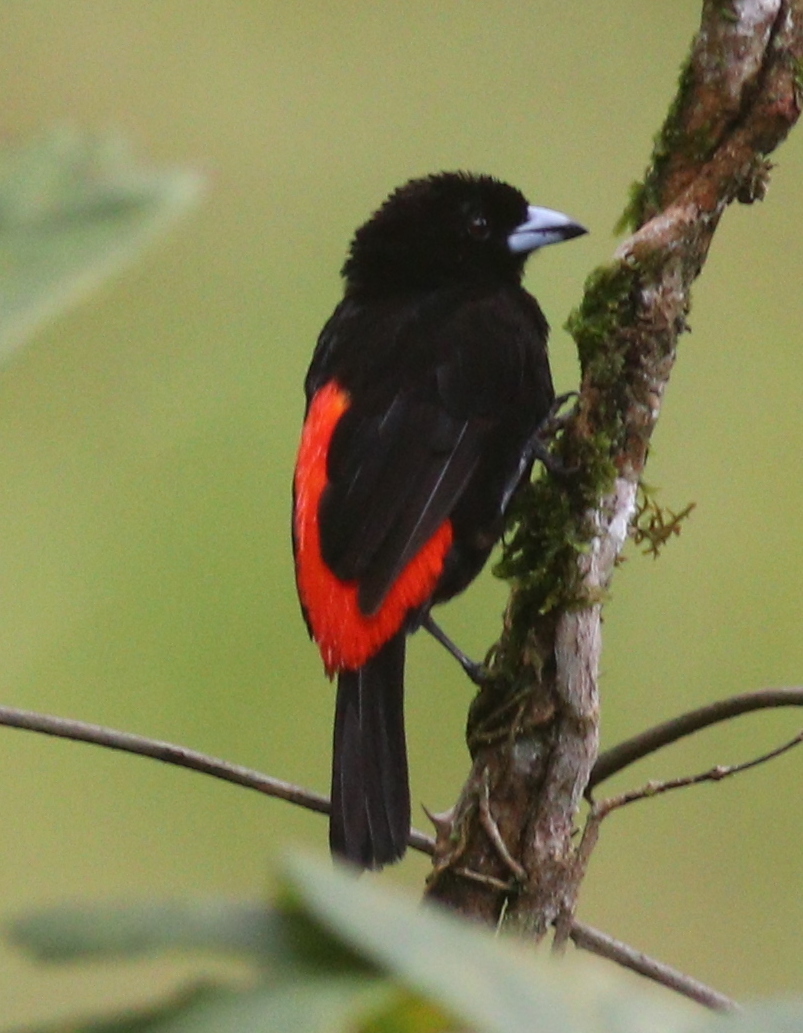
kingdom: Animalia
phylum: Chordata
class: Aves
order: Passeriformes
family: Thraupidae
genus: Ramphocelus
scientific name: Ramphocelus passerinii
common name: Passerini's tanager
